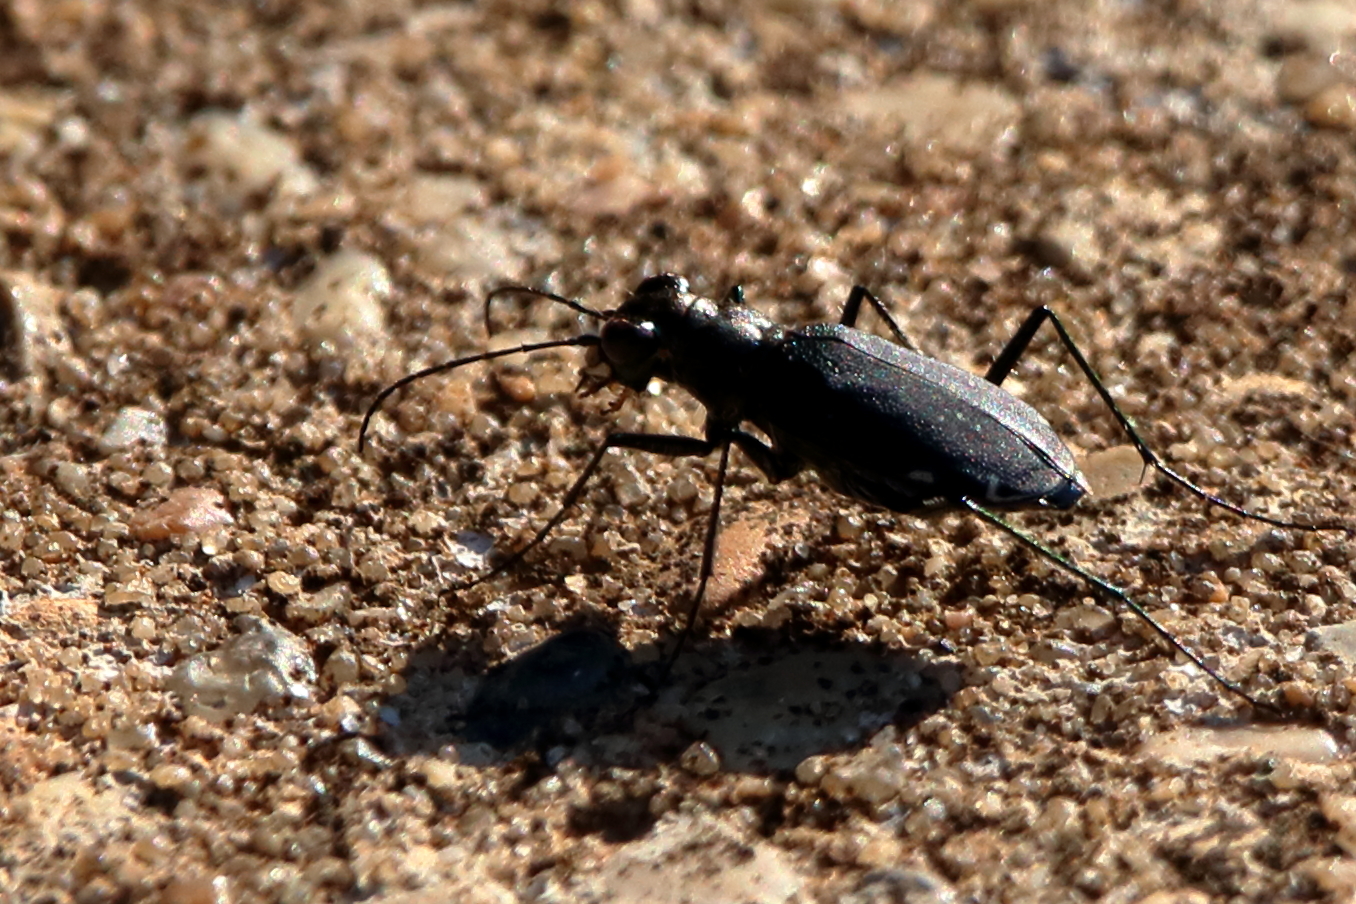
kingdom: Animalia
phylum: Arthropoda
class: Insecta
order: Coleoptera
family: Carabidae
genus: Cicindela
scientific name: Cicindela punctulata
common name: Punctured tiger beetle
